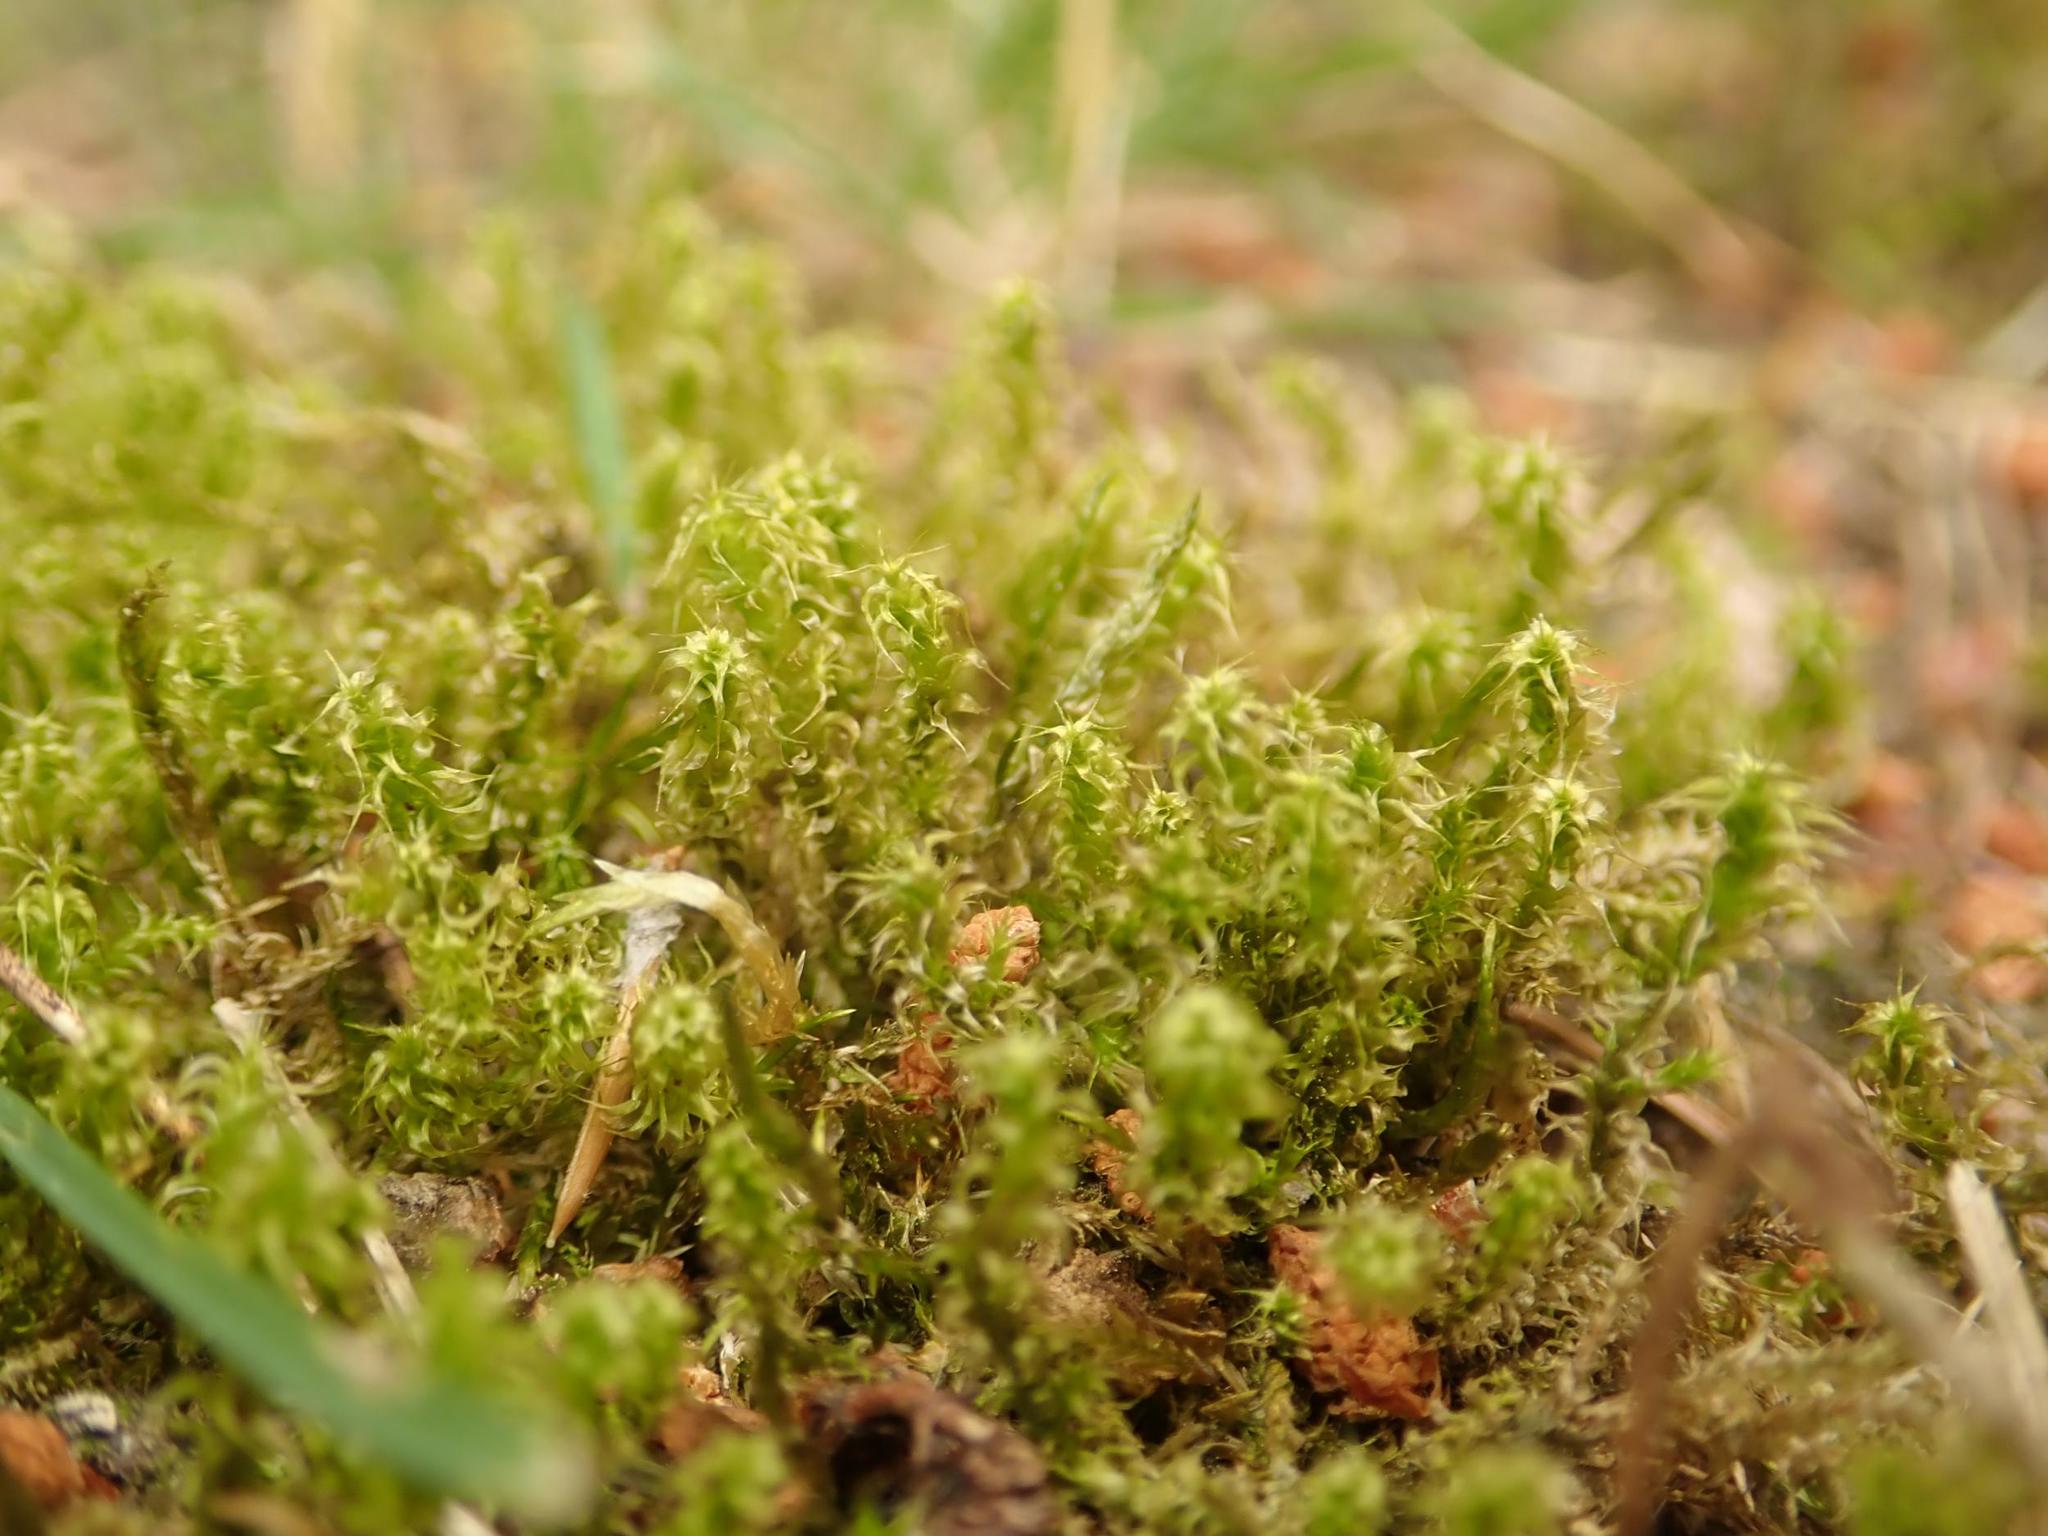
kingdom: Plantae
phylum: Bryophyta
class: Bryopsida
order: Hypnales
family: Hylocomiaceae
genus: Rhytidiadelphus
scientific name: Rhytidiadelphus squarrosus
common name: Springy turf-moss
